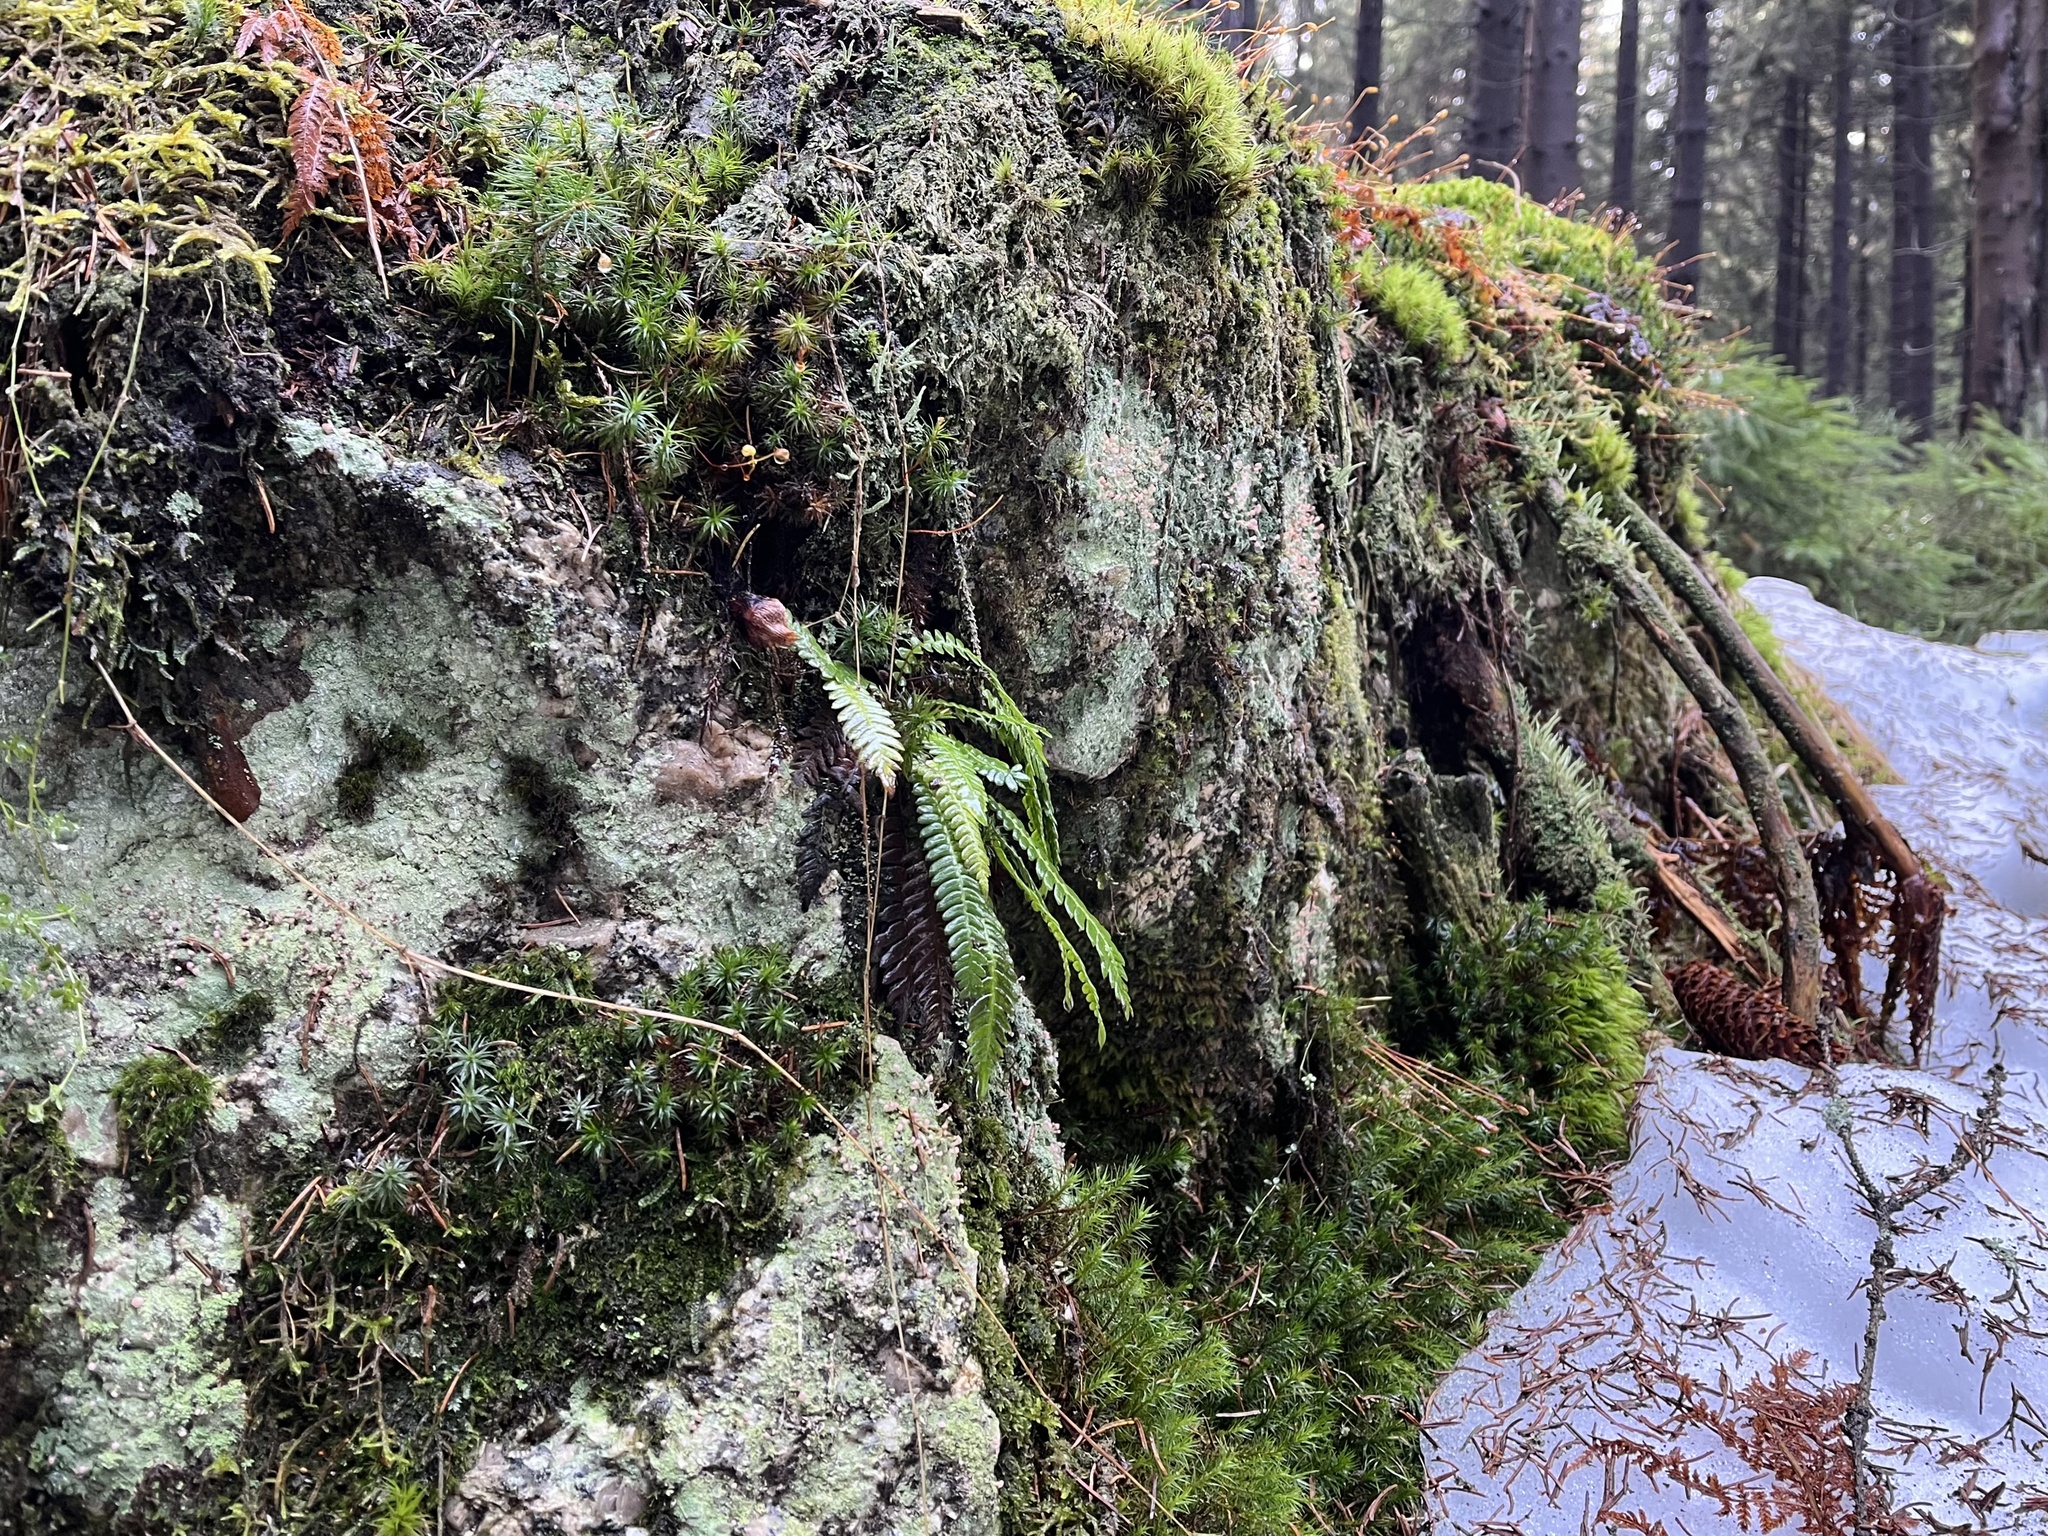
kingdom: Plantae
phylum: Tracheophyta
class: Polypodiopsida
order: Polypodiales
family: Blechnaceae
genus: Struthiopteris
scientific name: Struthiopteris spicant
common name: Deer fern
